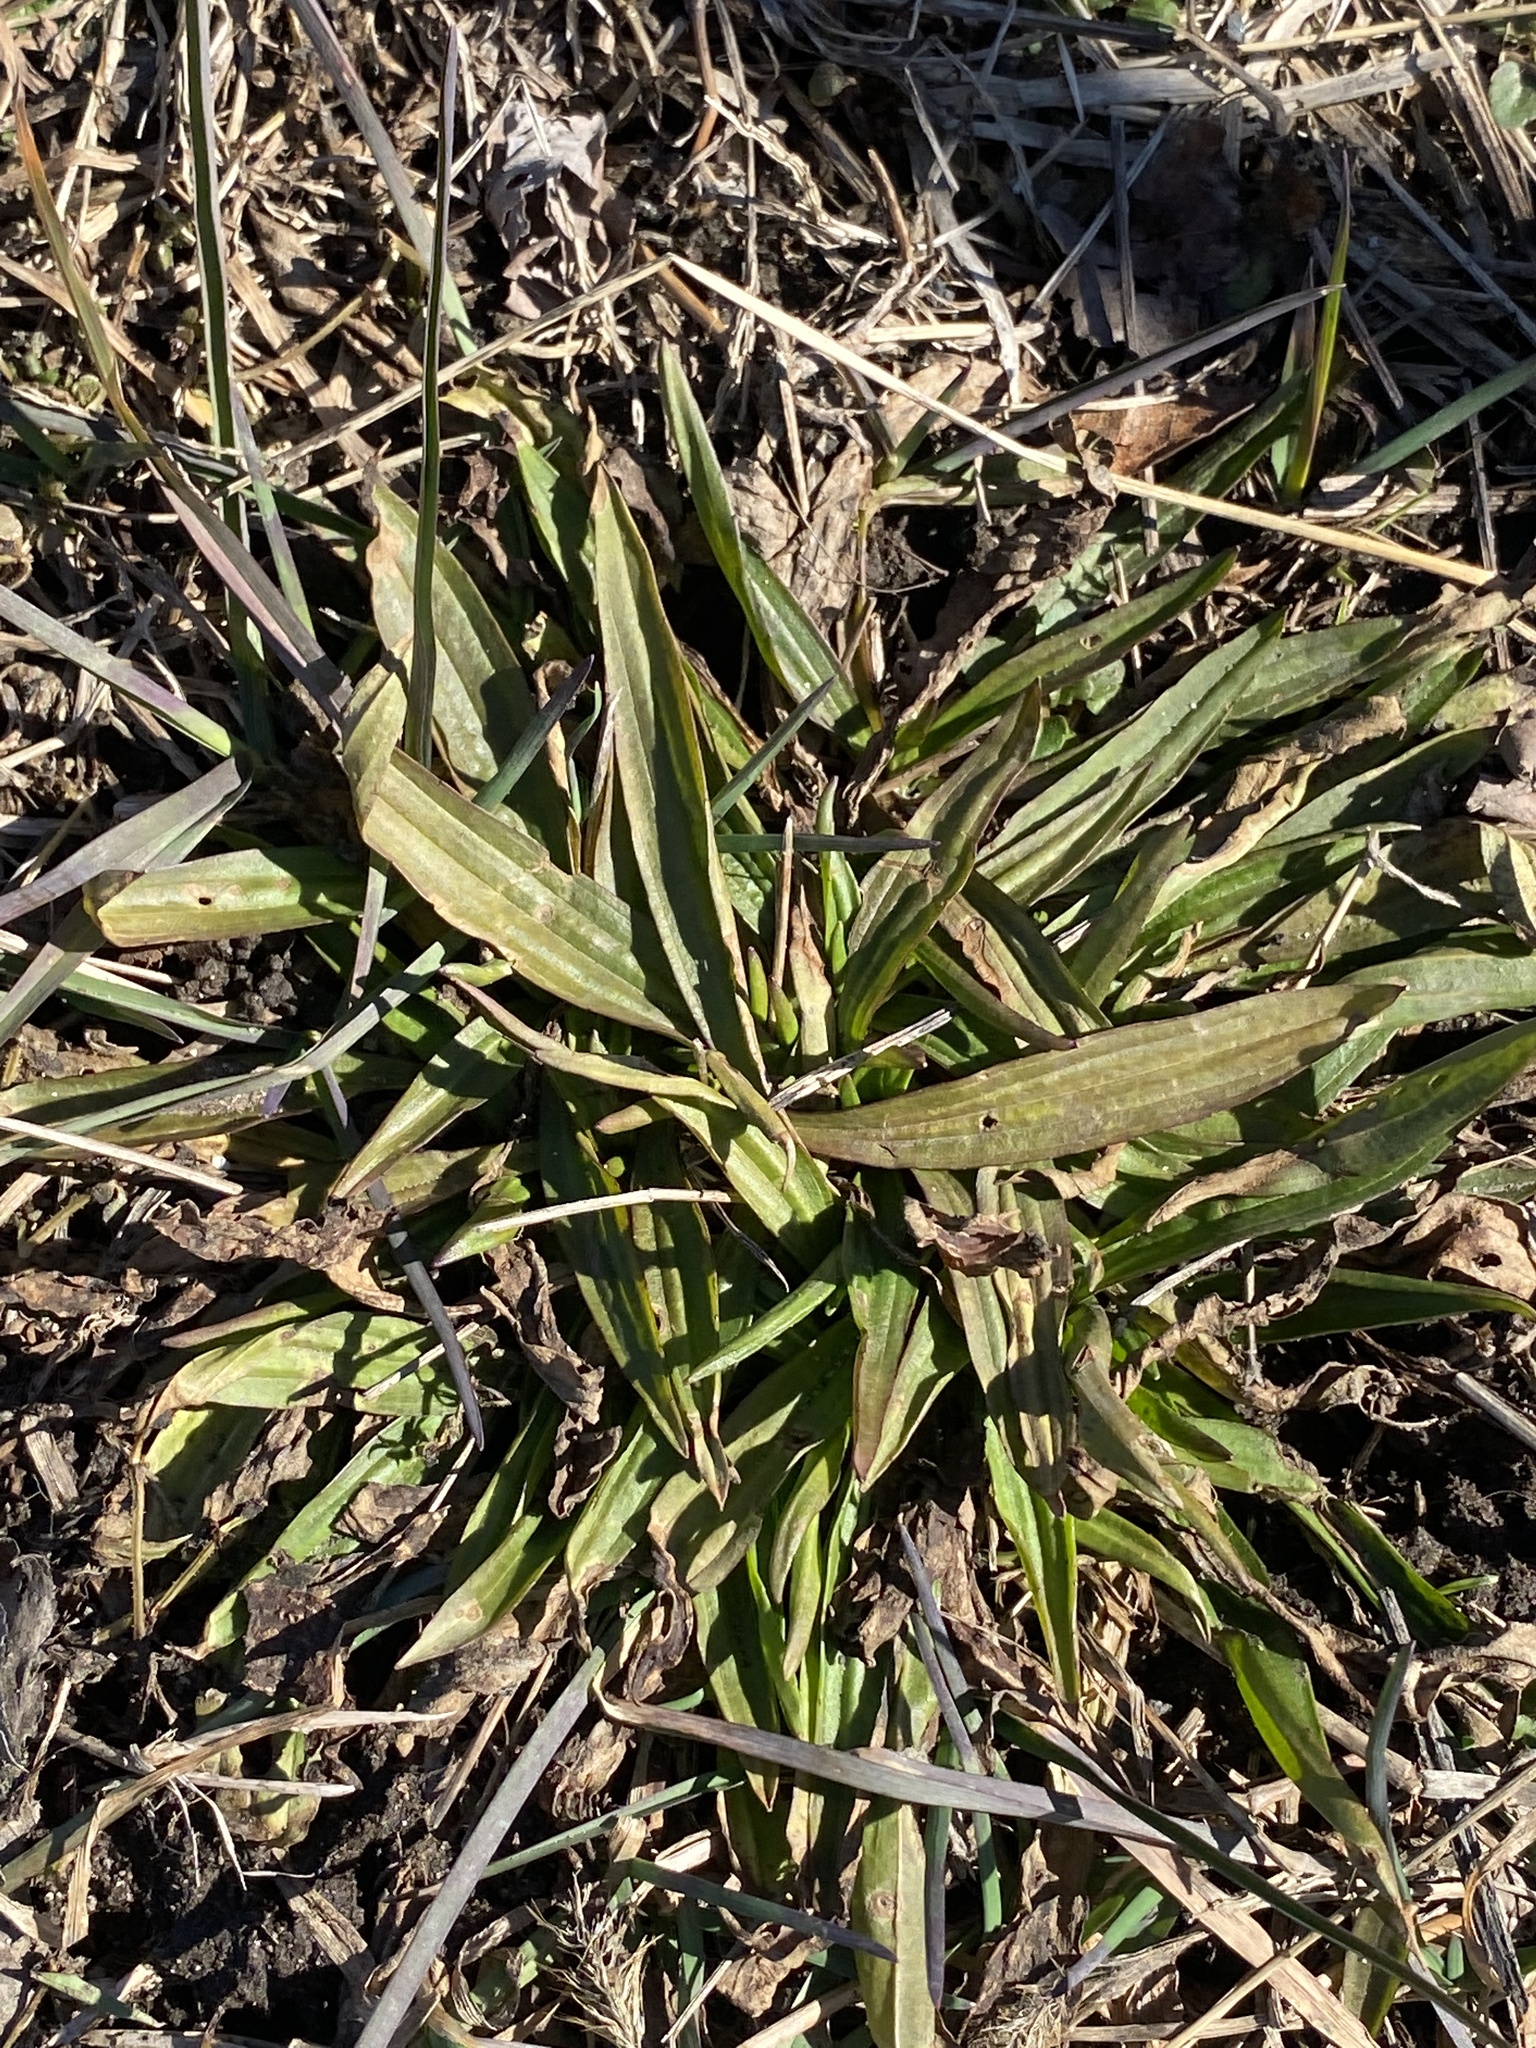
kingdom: Plantae
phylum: Tracheophyta
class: Magnoliopsida
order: Lamiales
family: Plantaginaceae
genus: Plantago
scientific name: Plantago lanceolata
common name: Ribwort plantain
